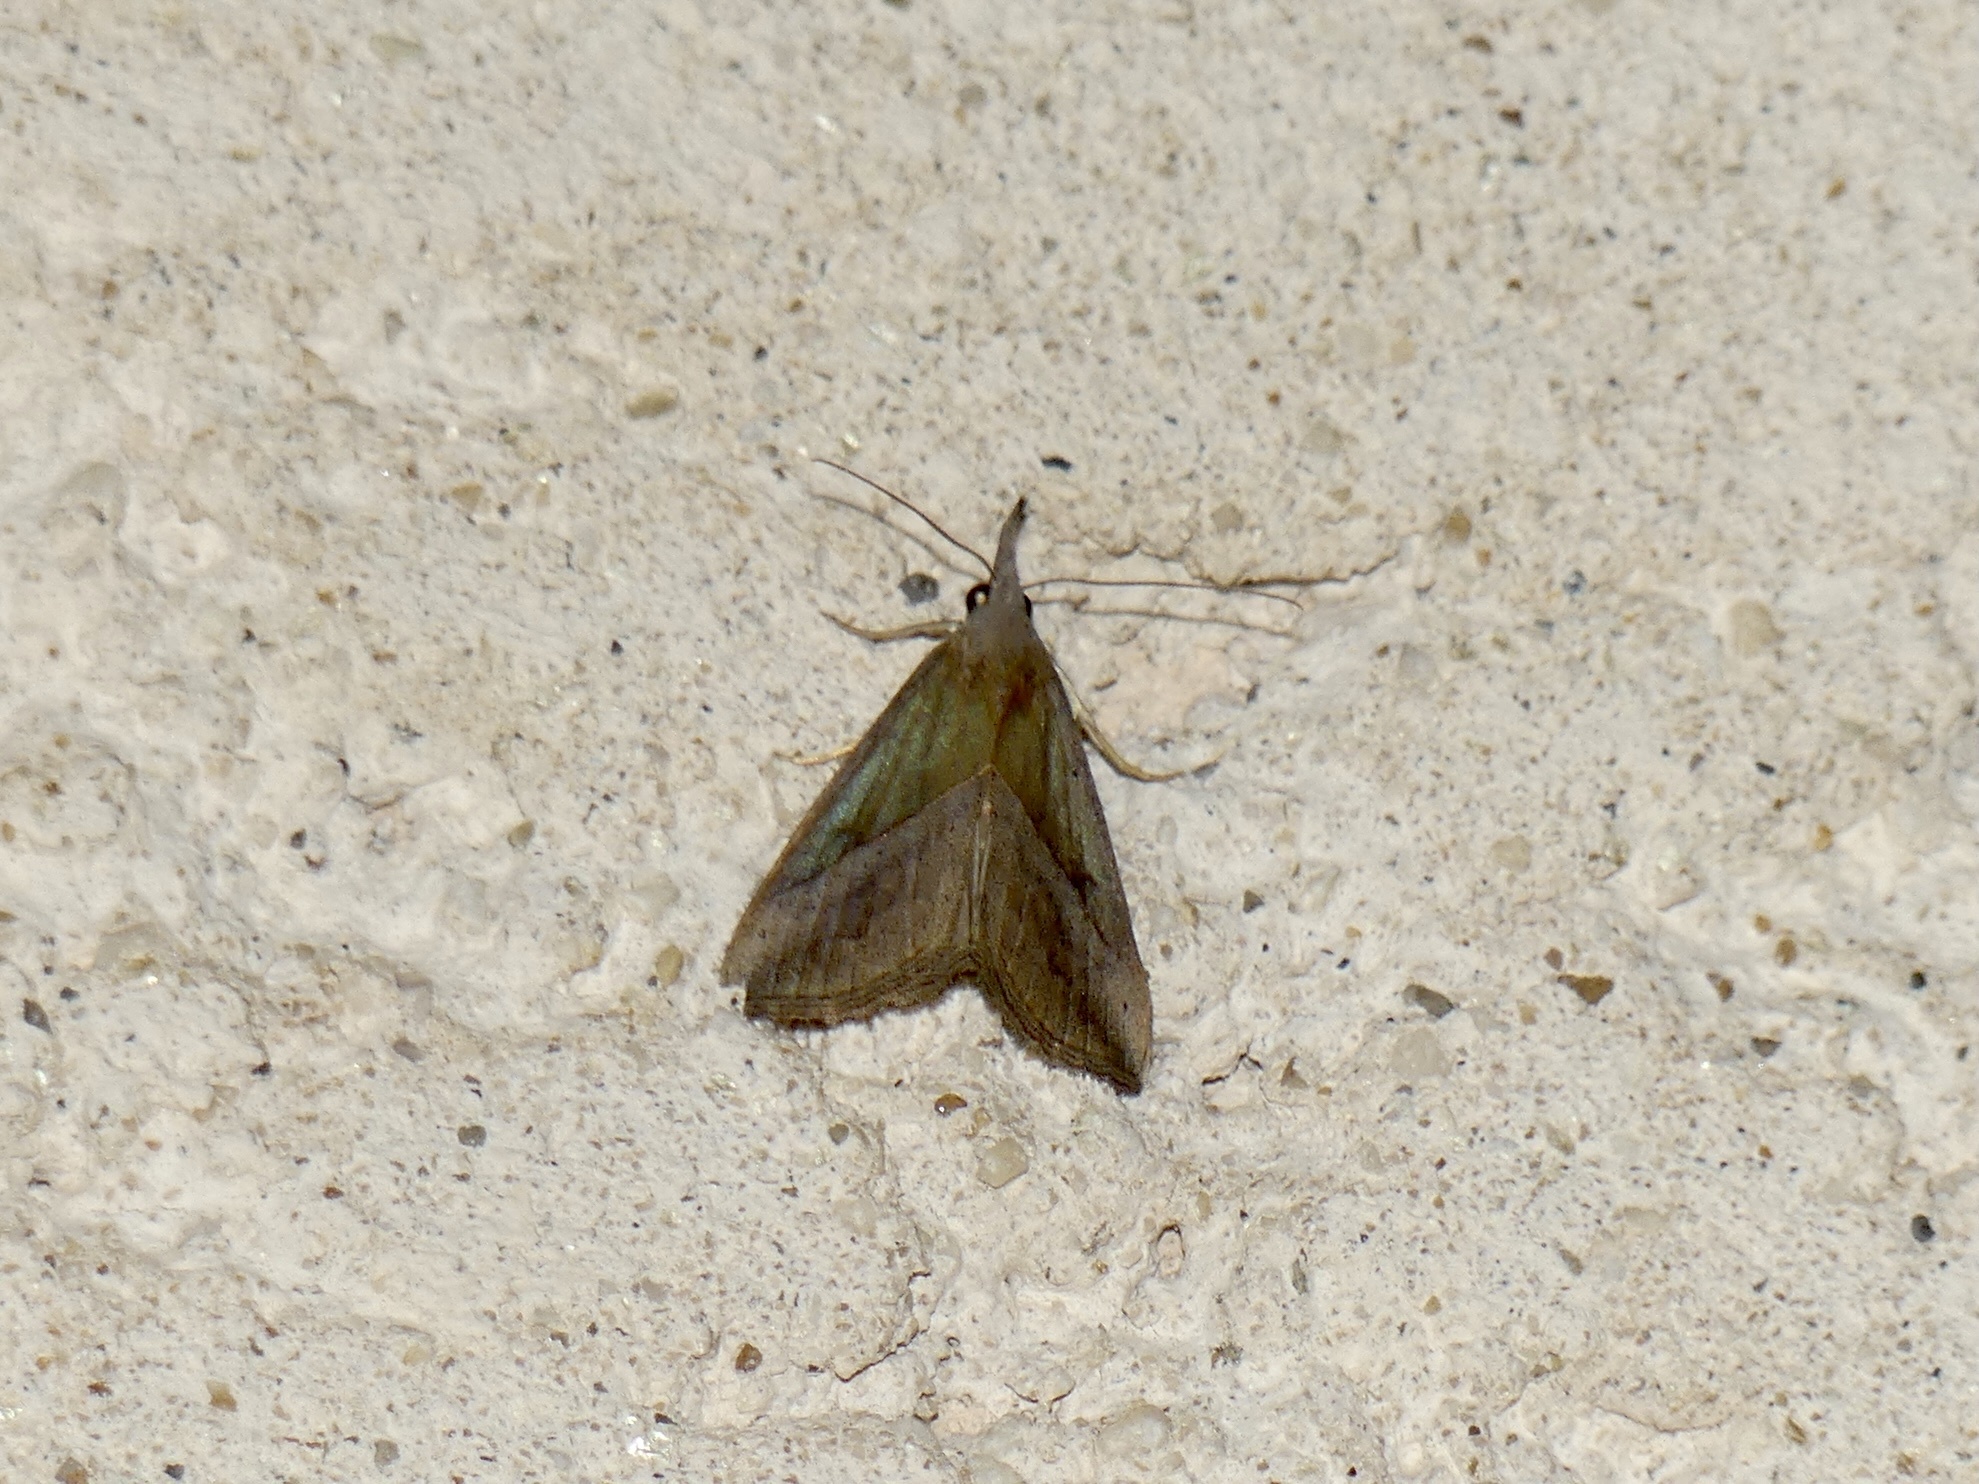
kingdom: Animalia
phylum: Arthropoda
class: Insecta
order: Lepidoptera
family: Erebidae
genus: Hypena
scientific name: Hypena lividalis
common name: Chevron snout
